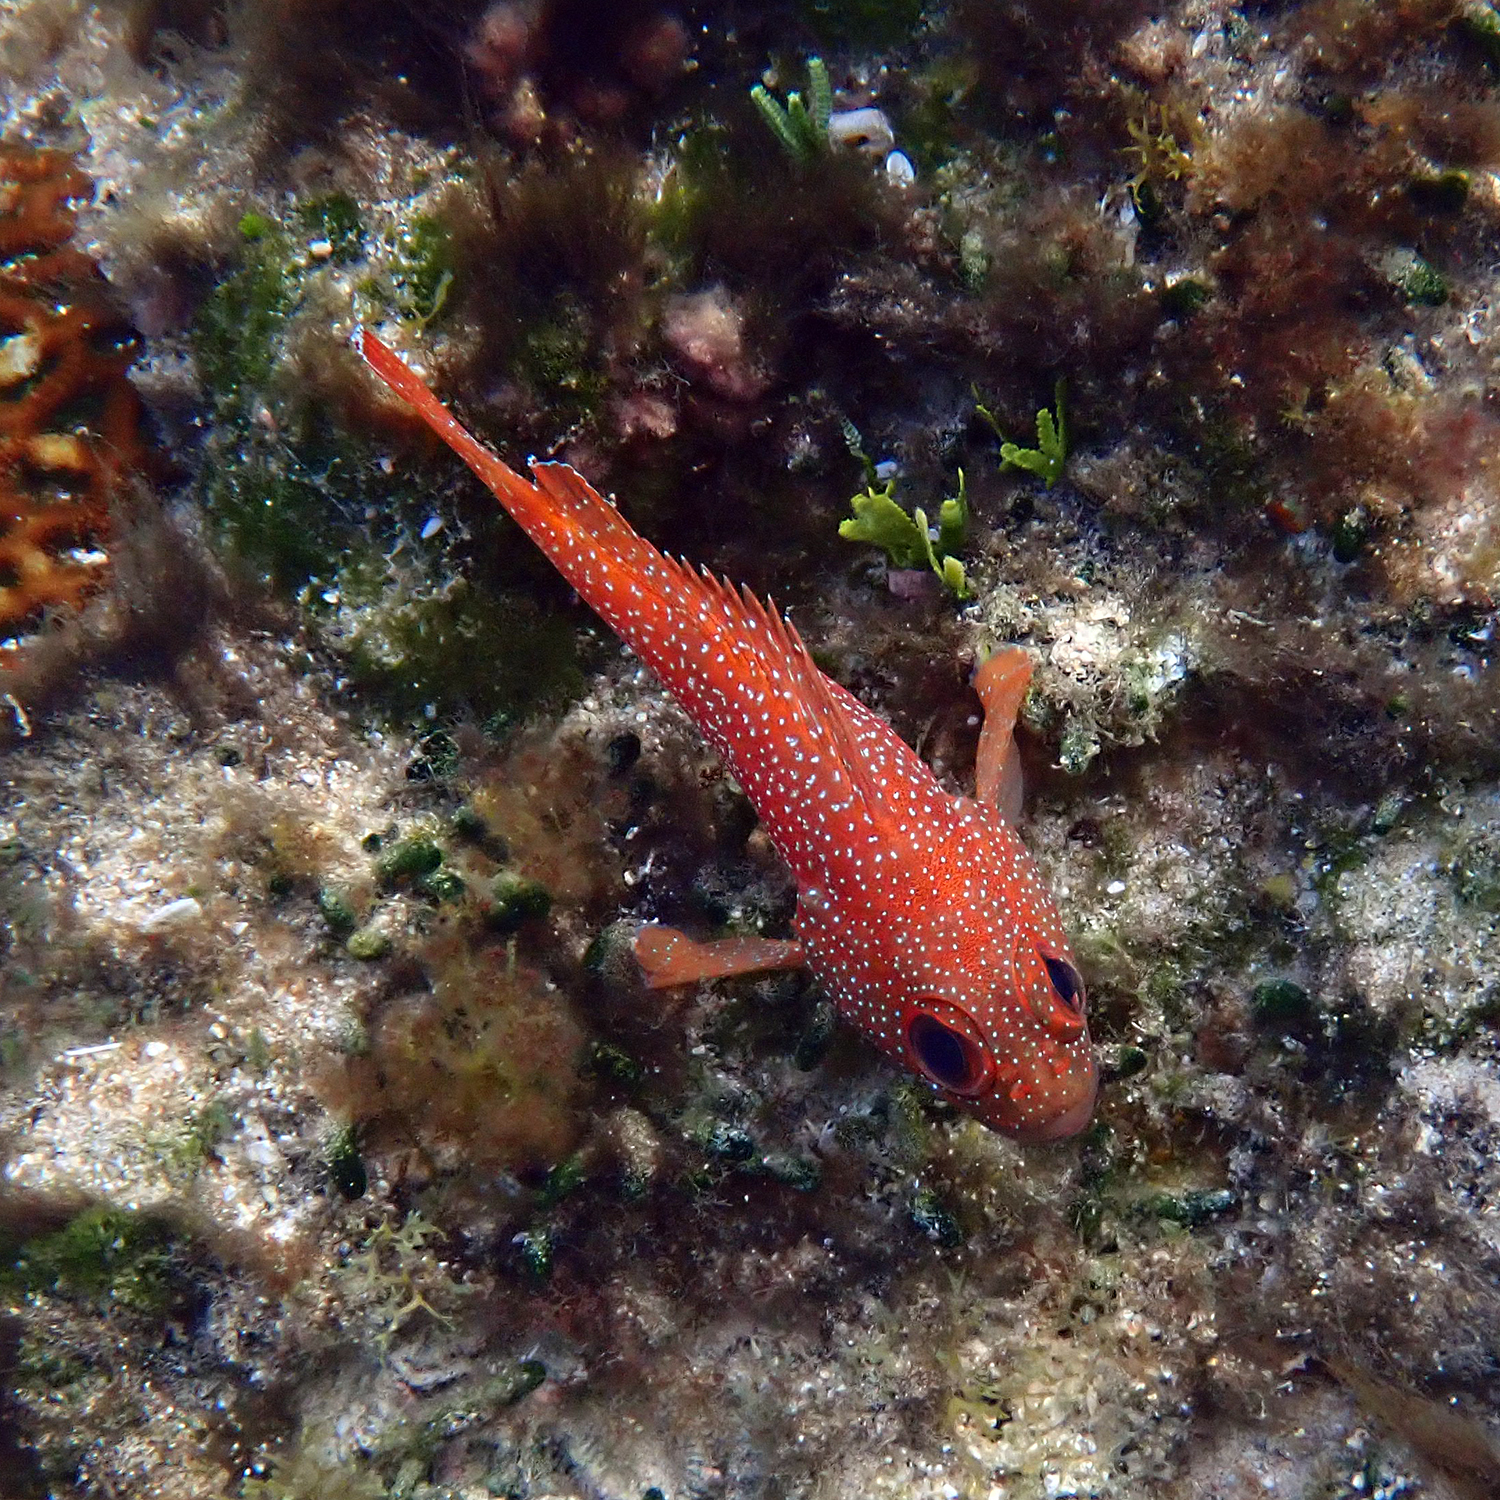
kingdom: Animalia
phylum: Chordata
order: Perciformes
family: Serranidae
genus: Trachypoma
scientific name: Trachypoma macracanthus
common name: Toadstool grouper
